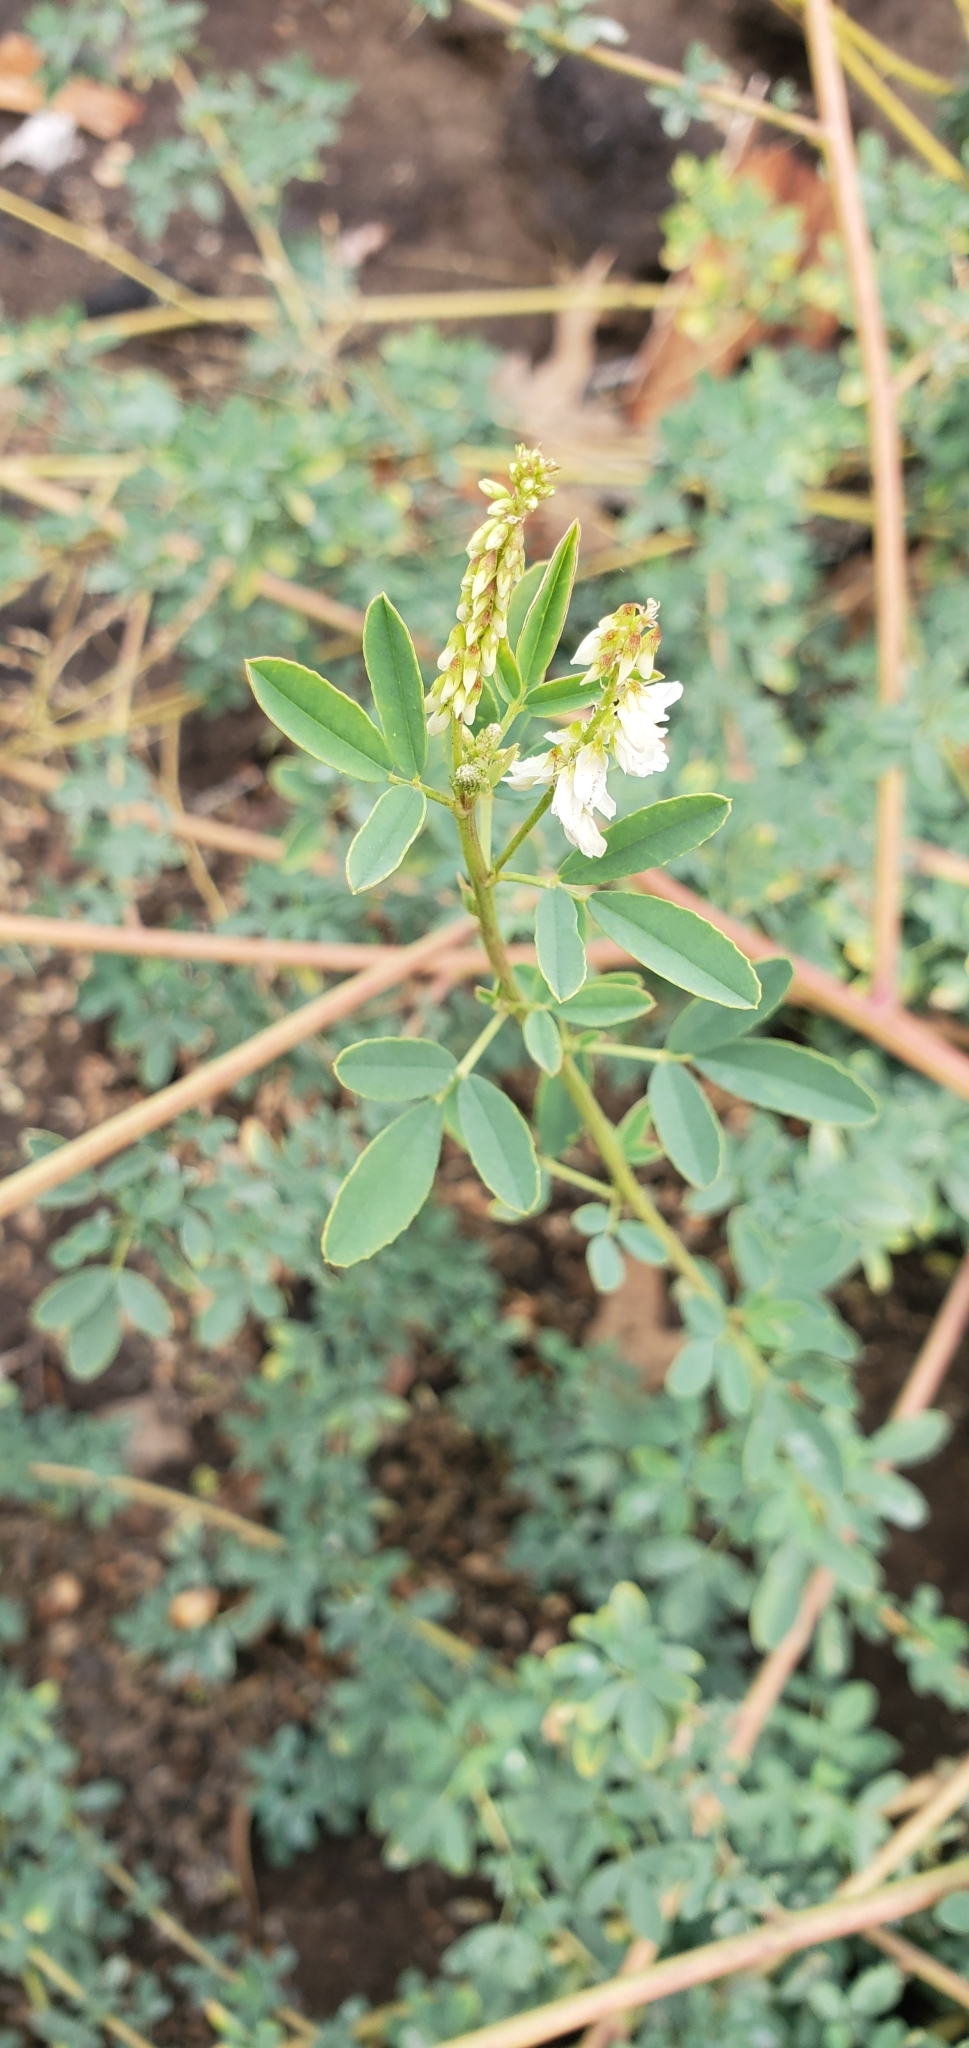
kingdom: Plantae
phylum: Tracheophyta
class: Magnoliopsida
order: Fabales
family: Fabaceae
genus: Melilotus
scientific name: Melilotus albus
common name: White melilot
